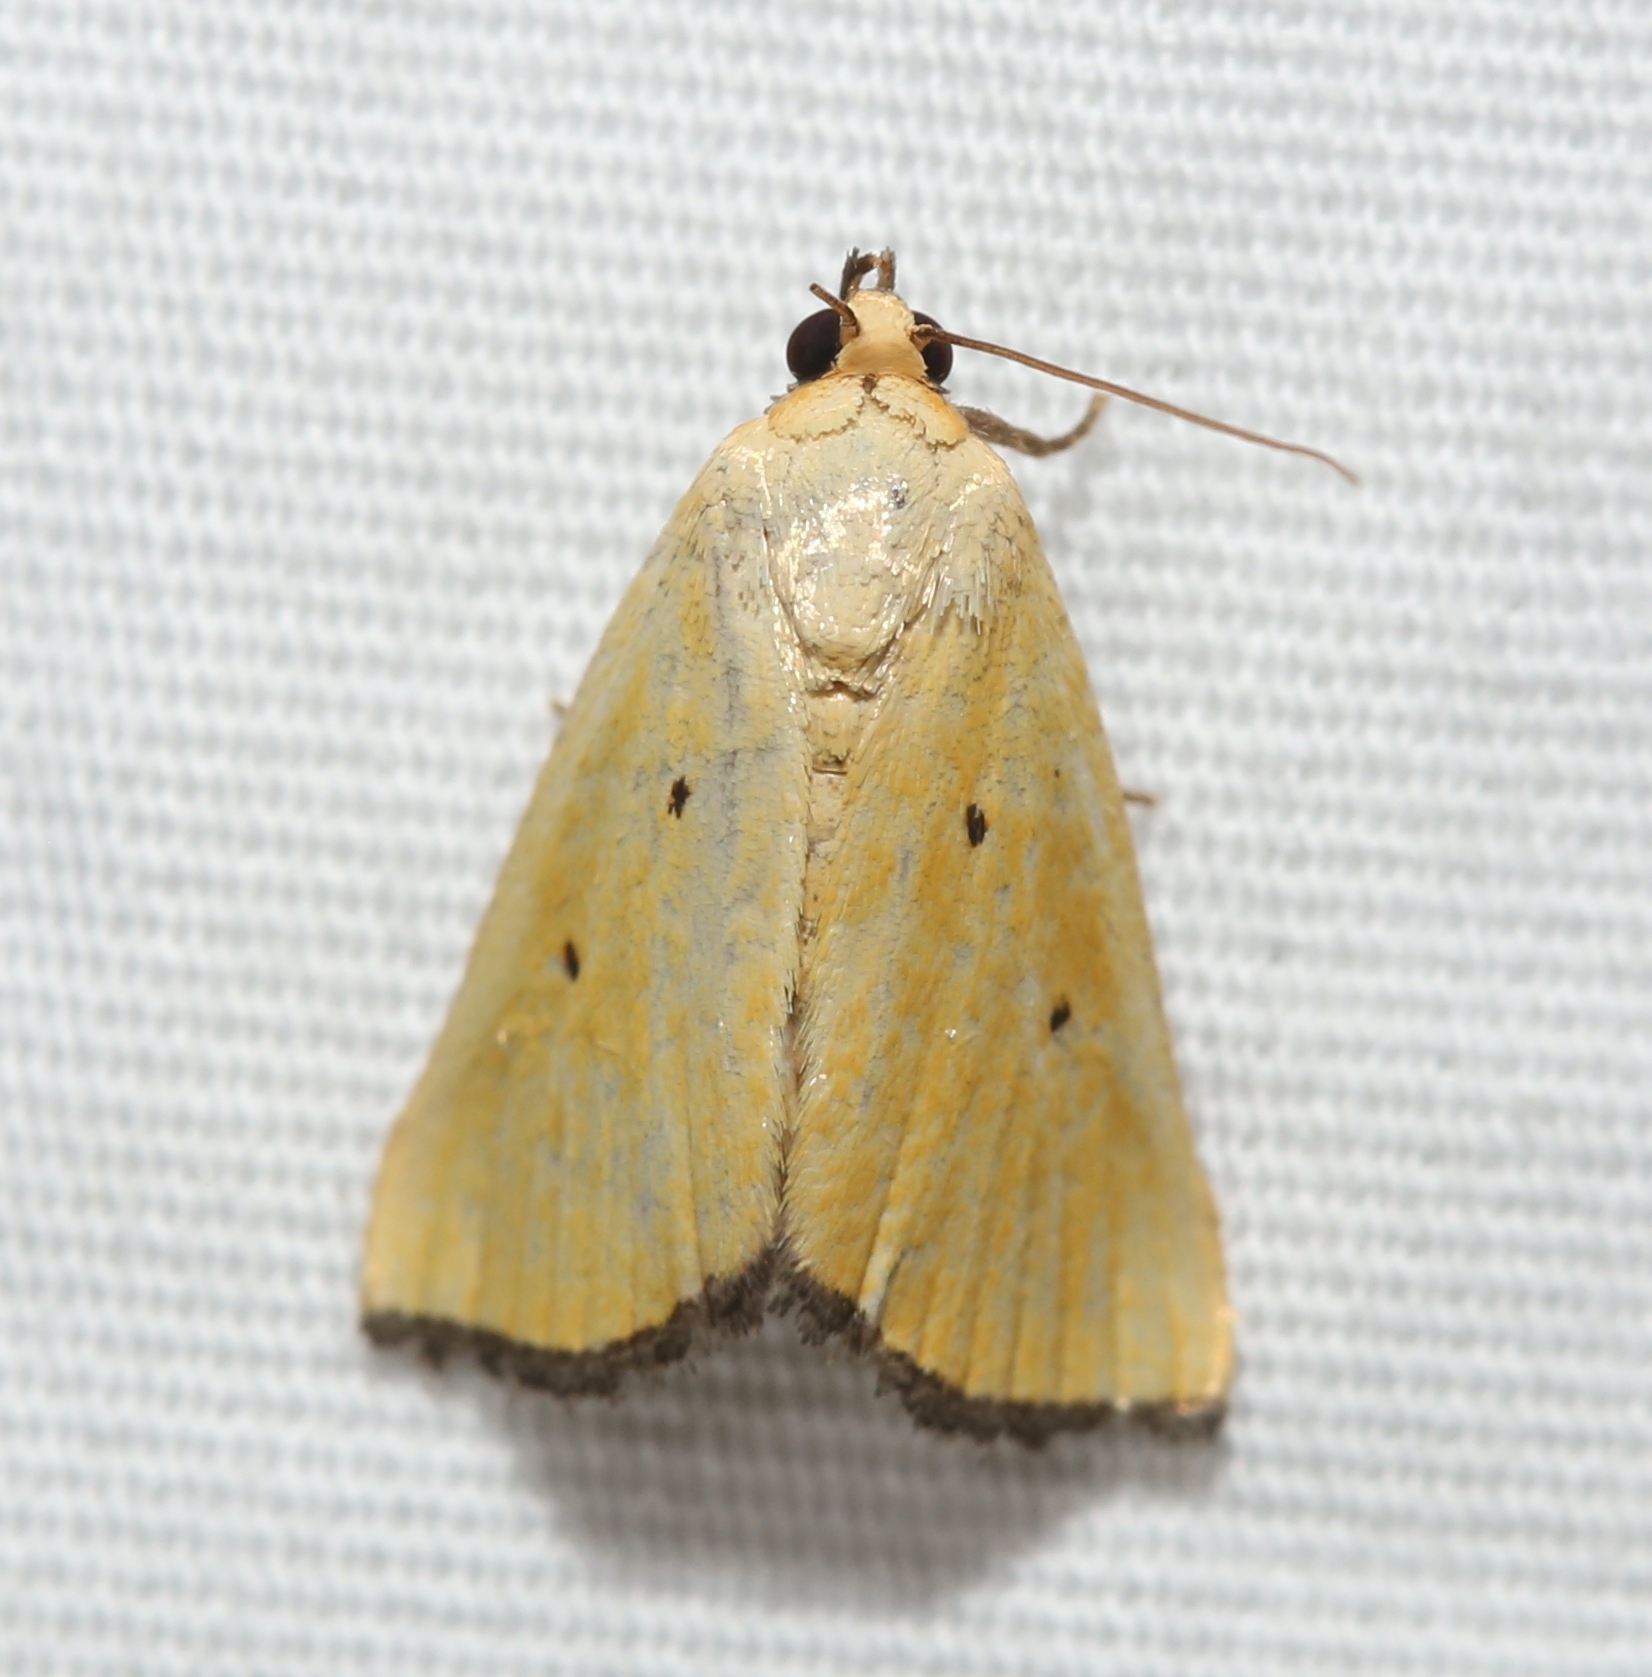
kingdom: Animalia
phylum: Arthropoda
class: Insecta
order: Lepidoptera
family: Noctuidae
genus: Marimatha
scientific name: Marimatha nigrofimbria
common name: Black-bordered lemon moth
